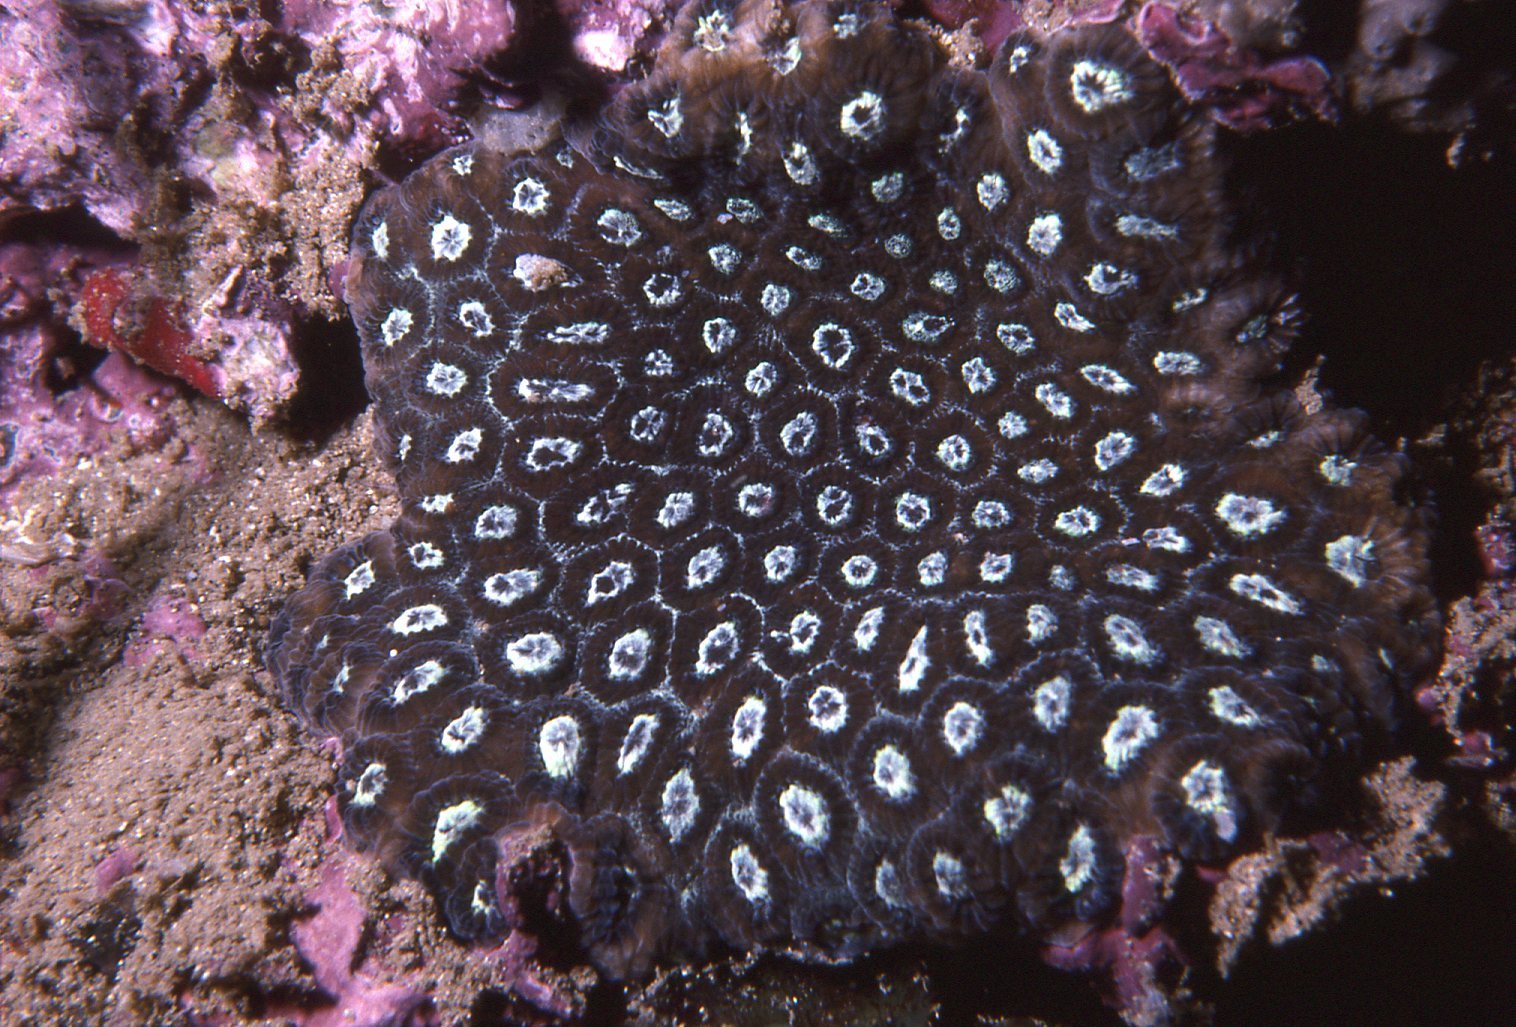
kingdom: Animalia
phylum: Cnidaria
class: Anthozoa
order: Scleractinia
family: Plesiastreidae
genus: Plesiastrea
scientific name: Plesiastrea versipora
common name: Small knob coral
